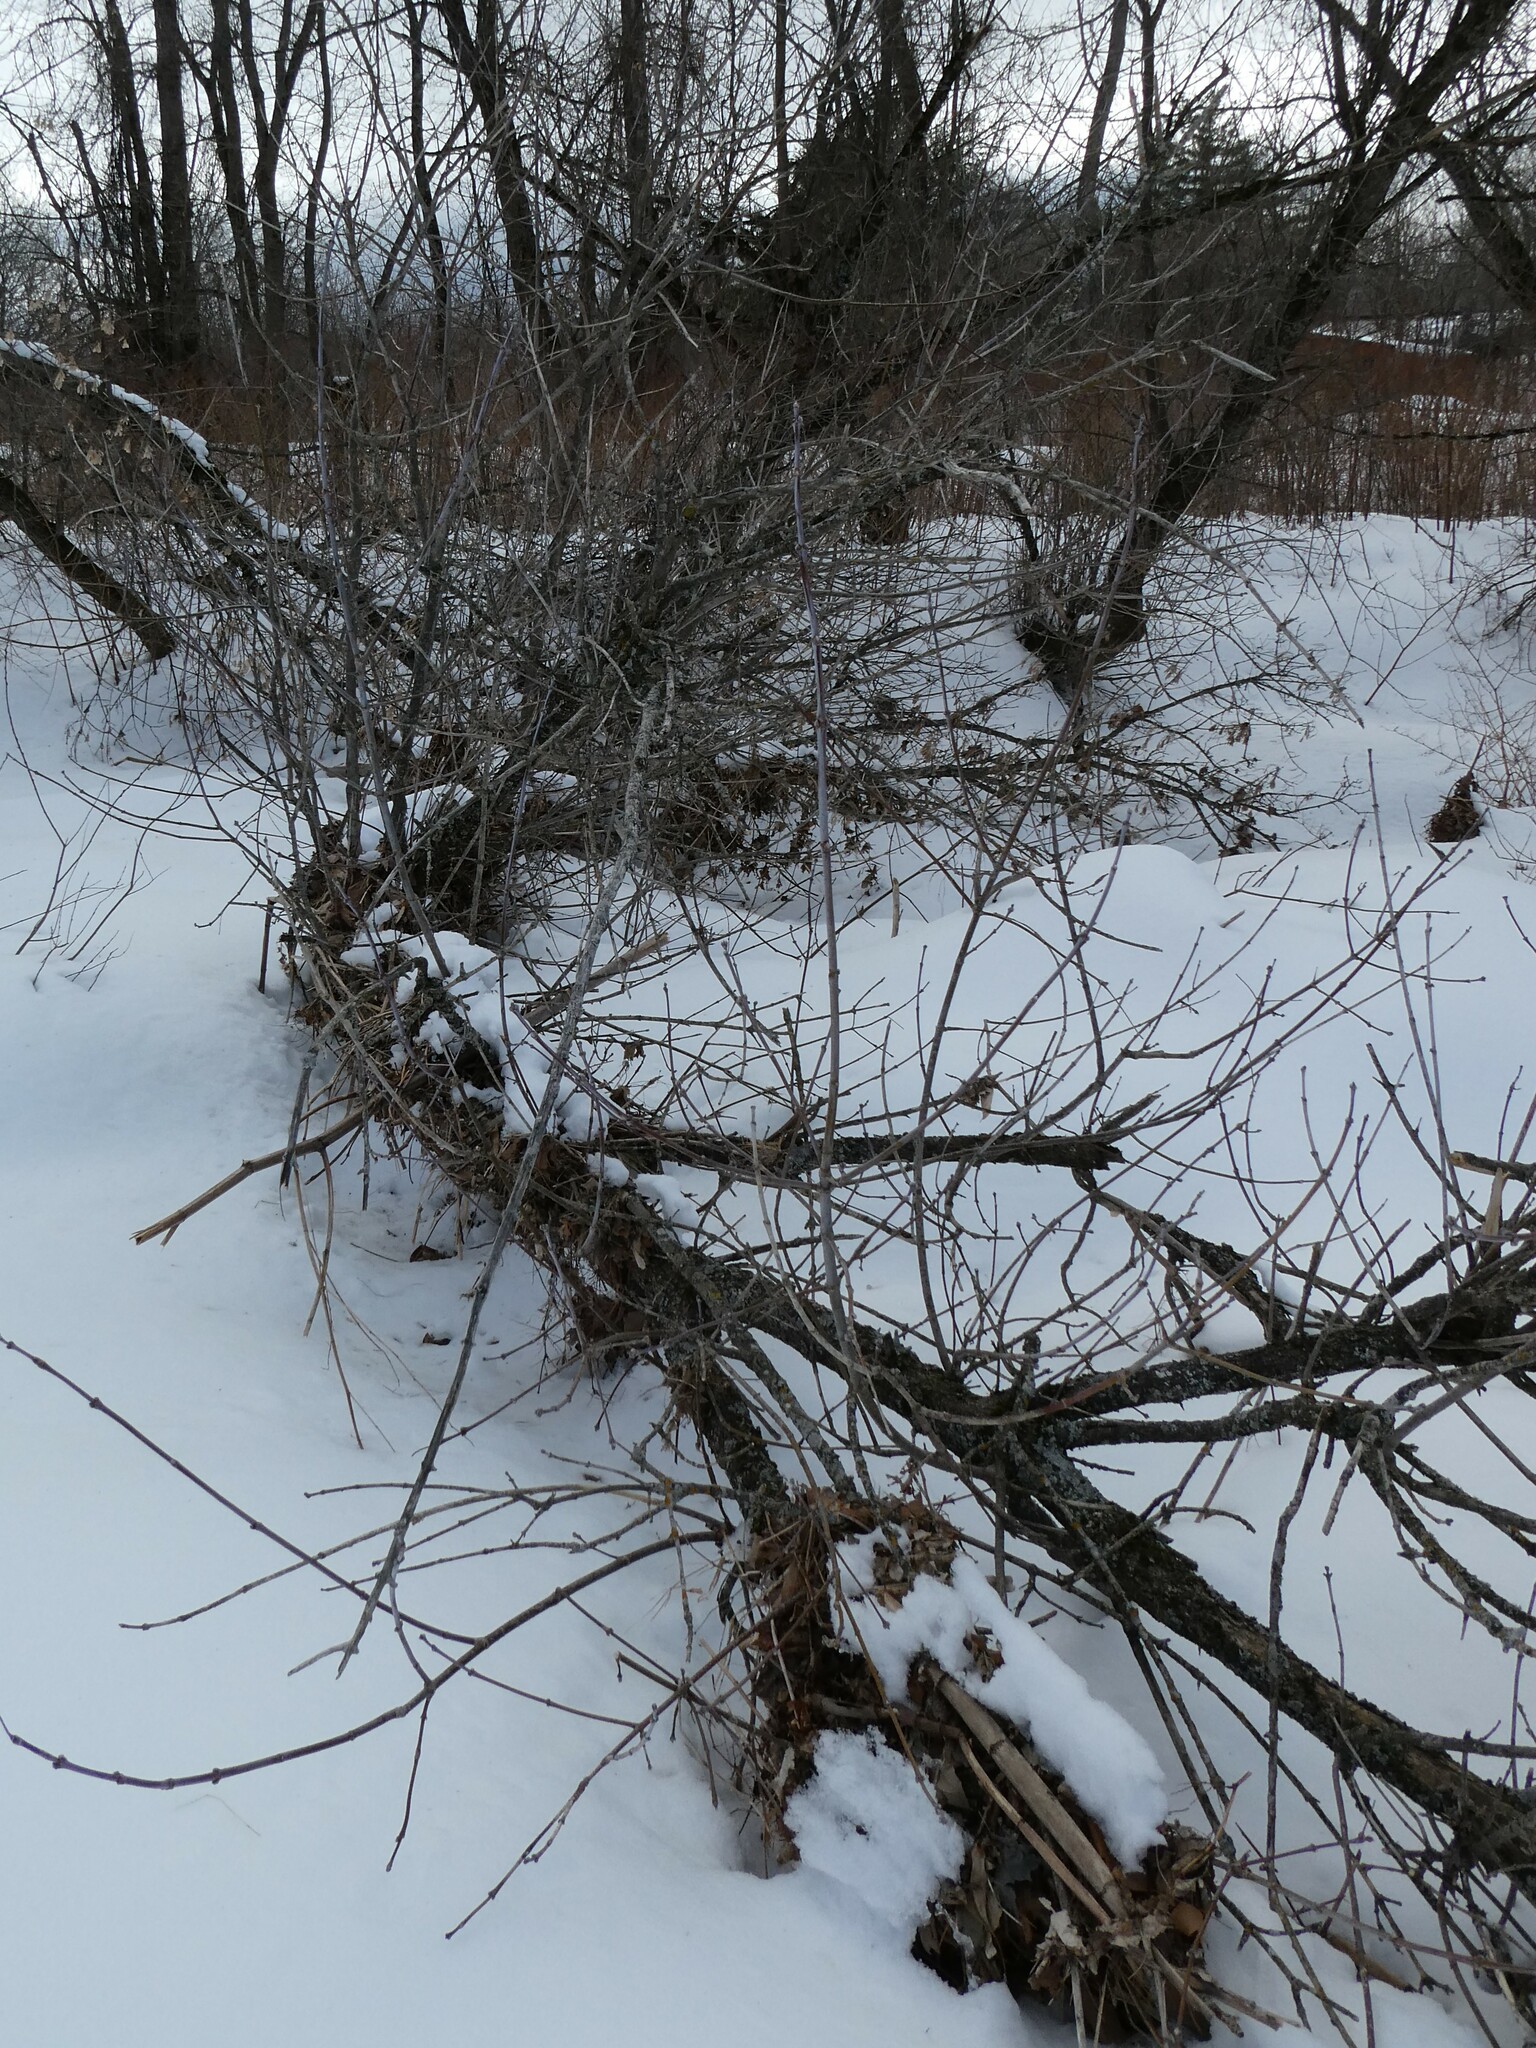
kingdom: Plantae
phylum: Tracheophyta
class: Magnoliopsida
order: Sapindales
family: Sapindaceae
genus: Acer
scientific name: Acer negundo
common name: Ashleaf maple
